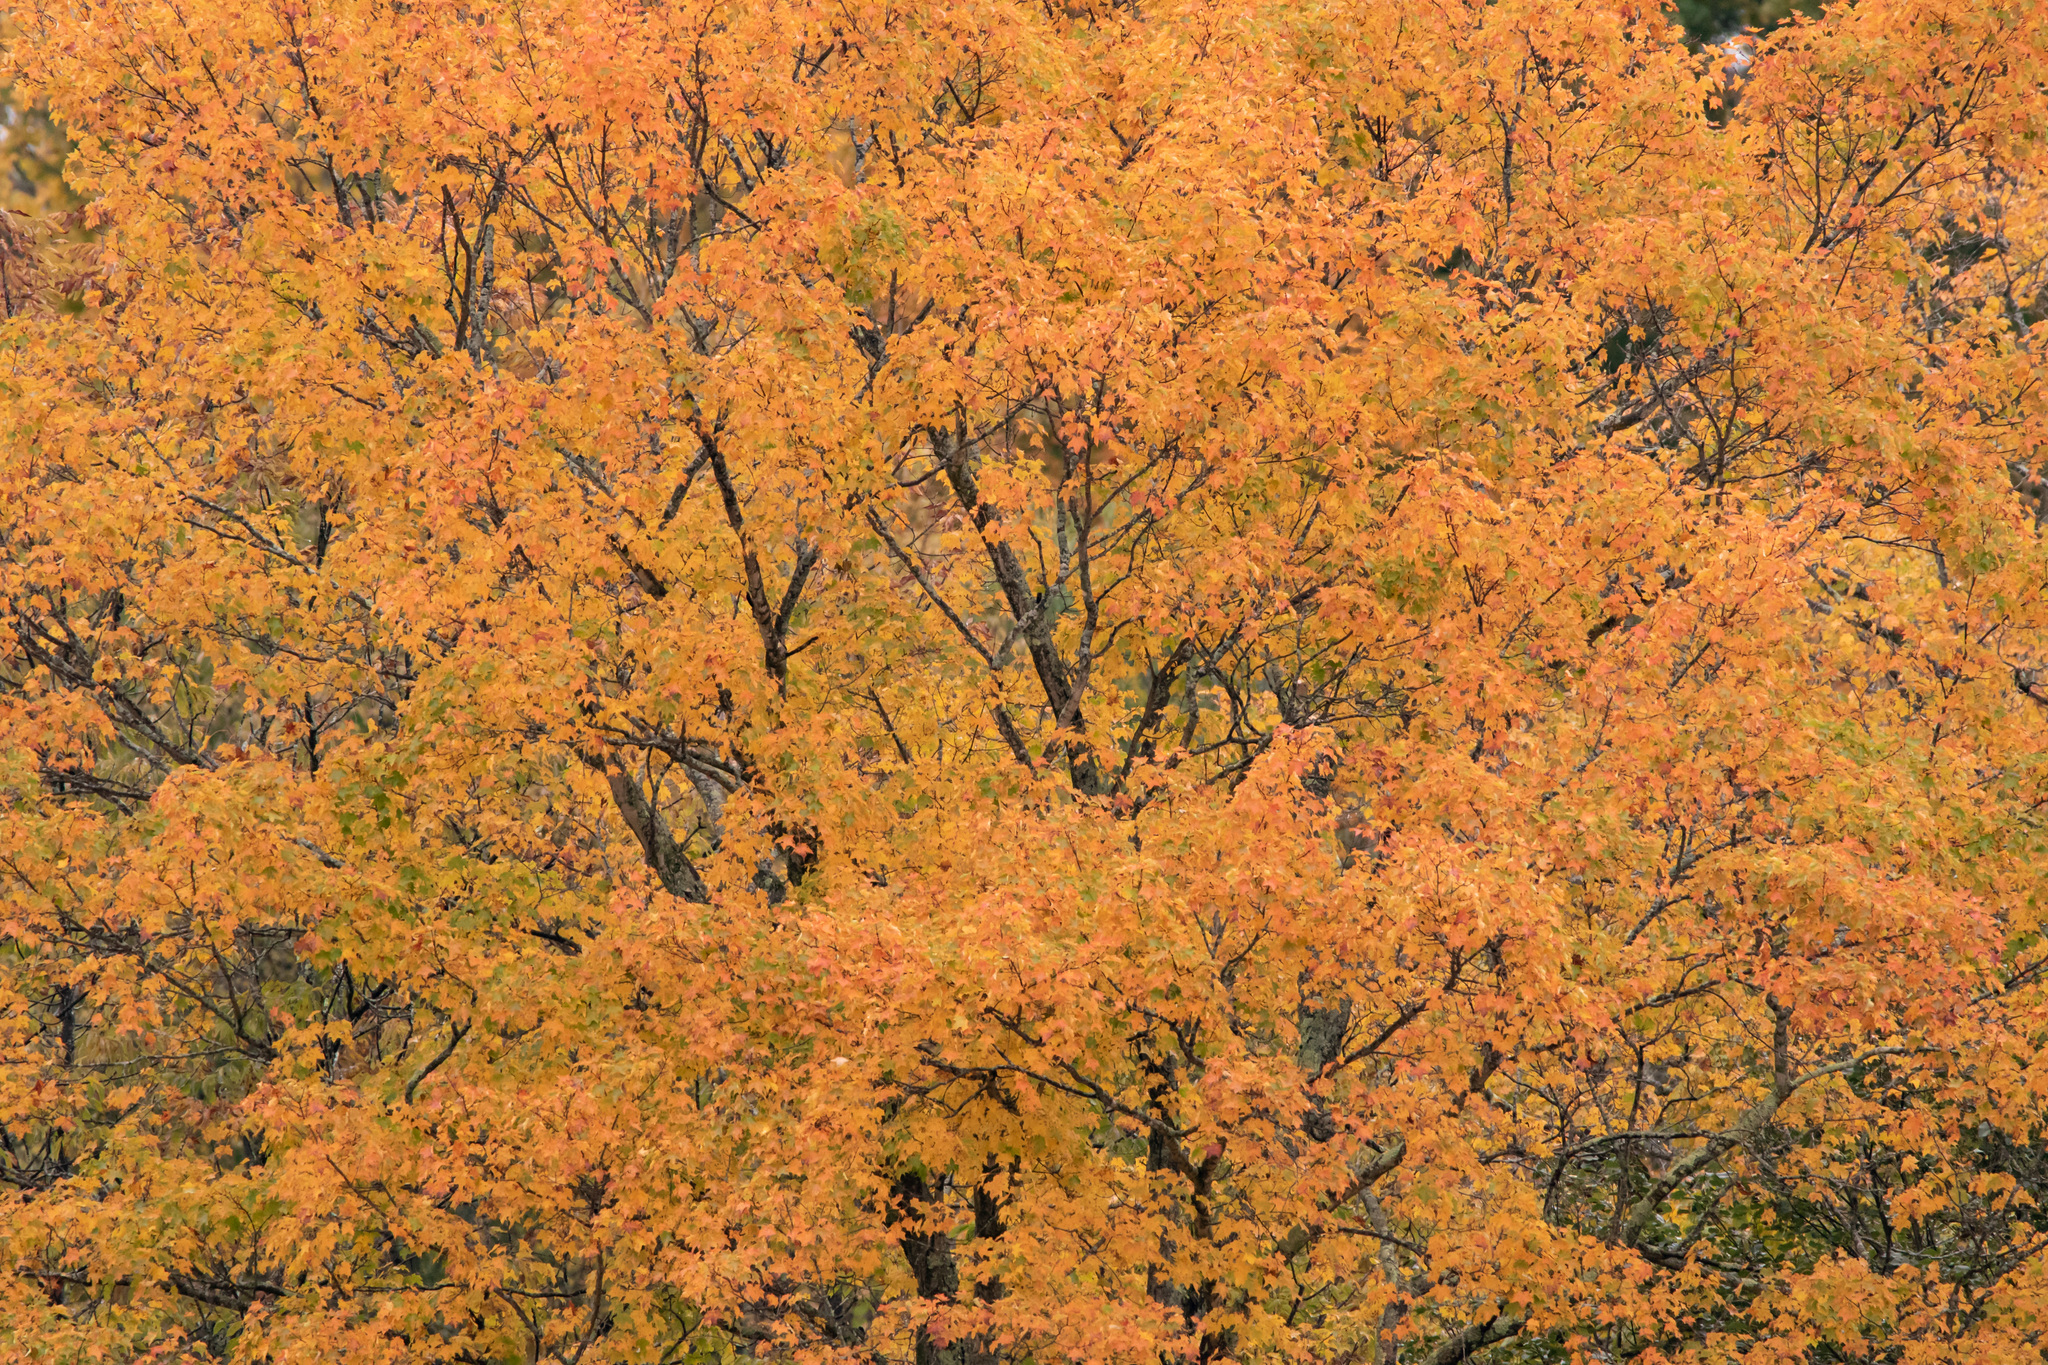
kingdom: Plantae
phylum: Tracheophyta
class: Magnoliopsida
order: Sapindales
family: Sapindaceae
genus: Acer
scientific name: Acer saccharum
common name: Sugar maple
